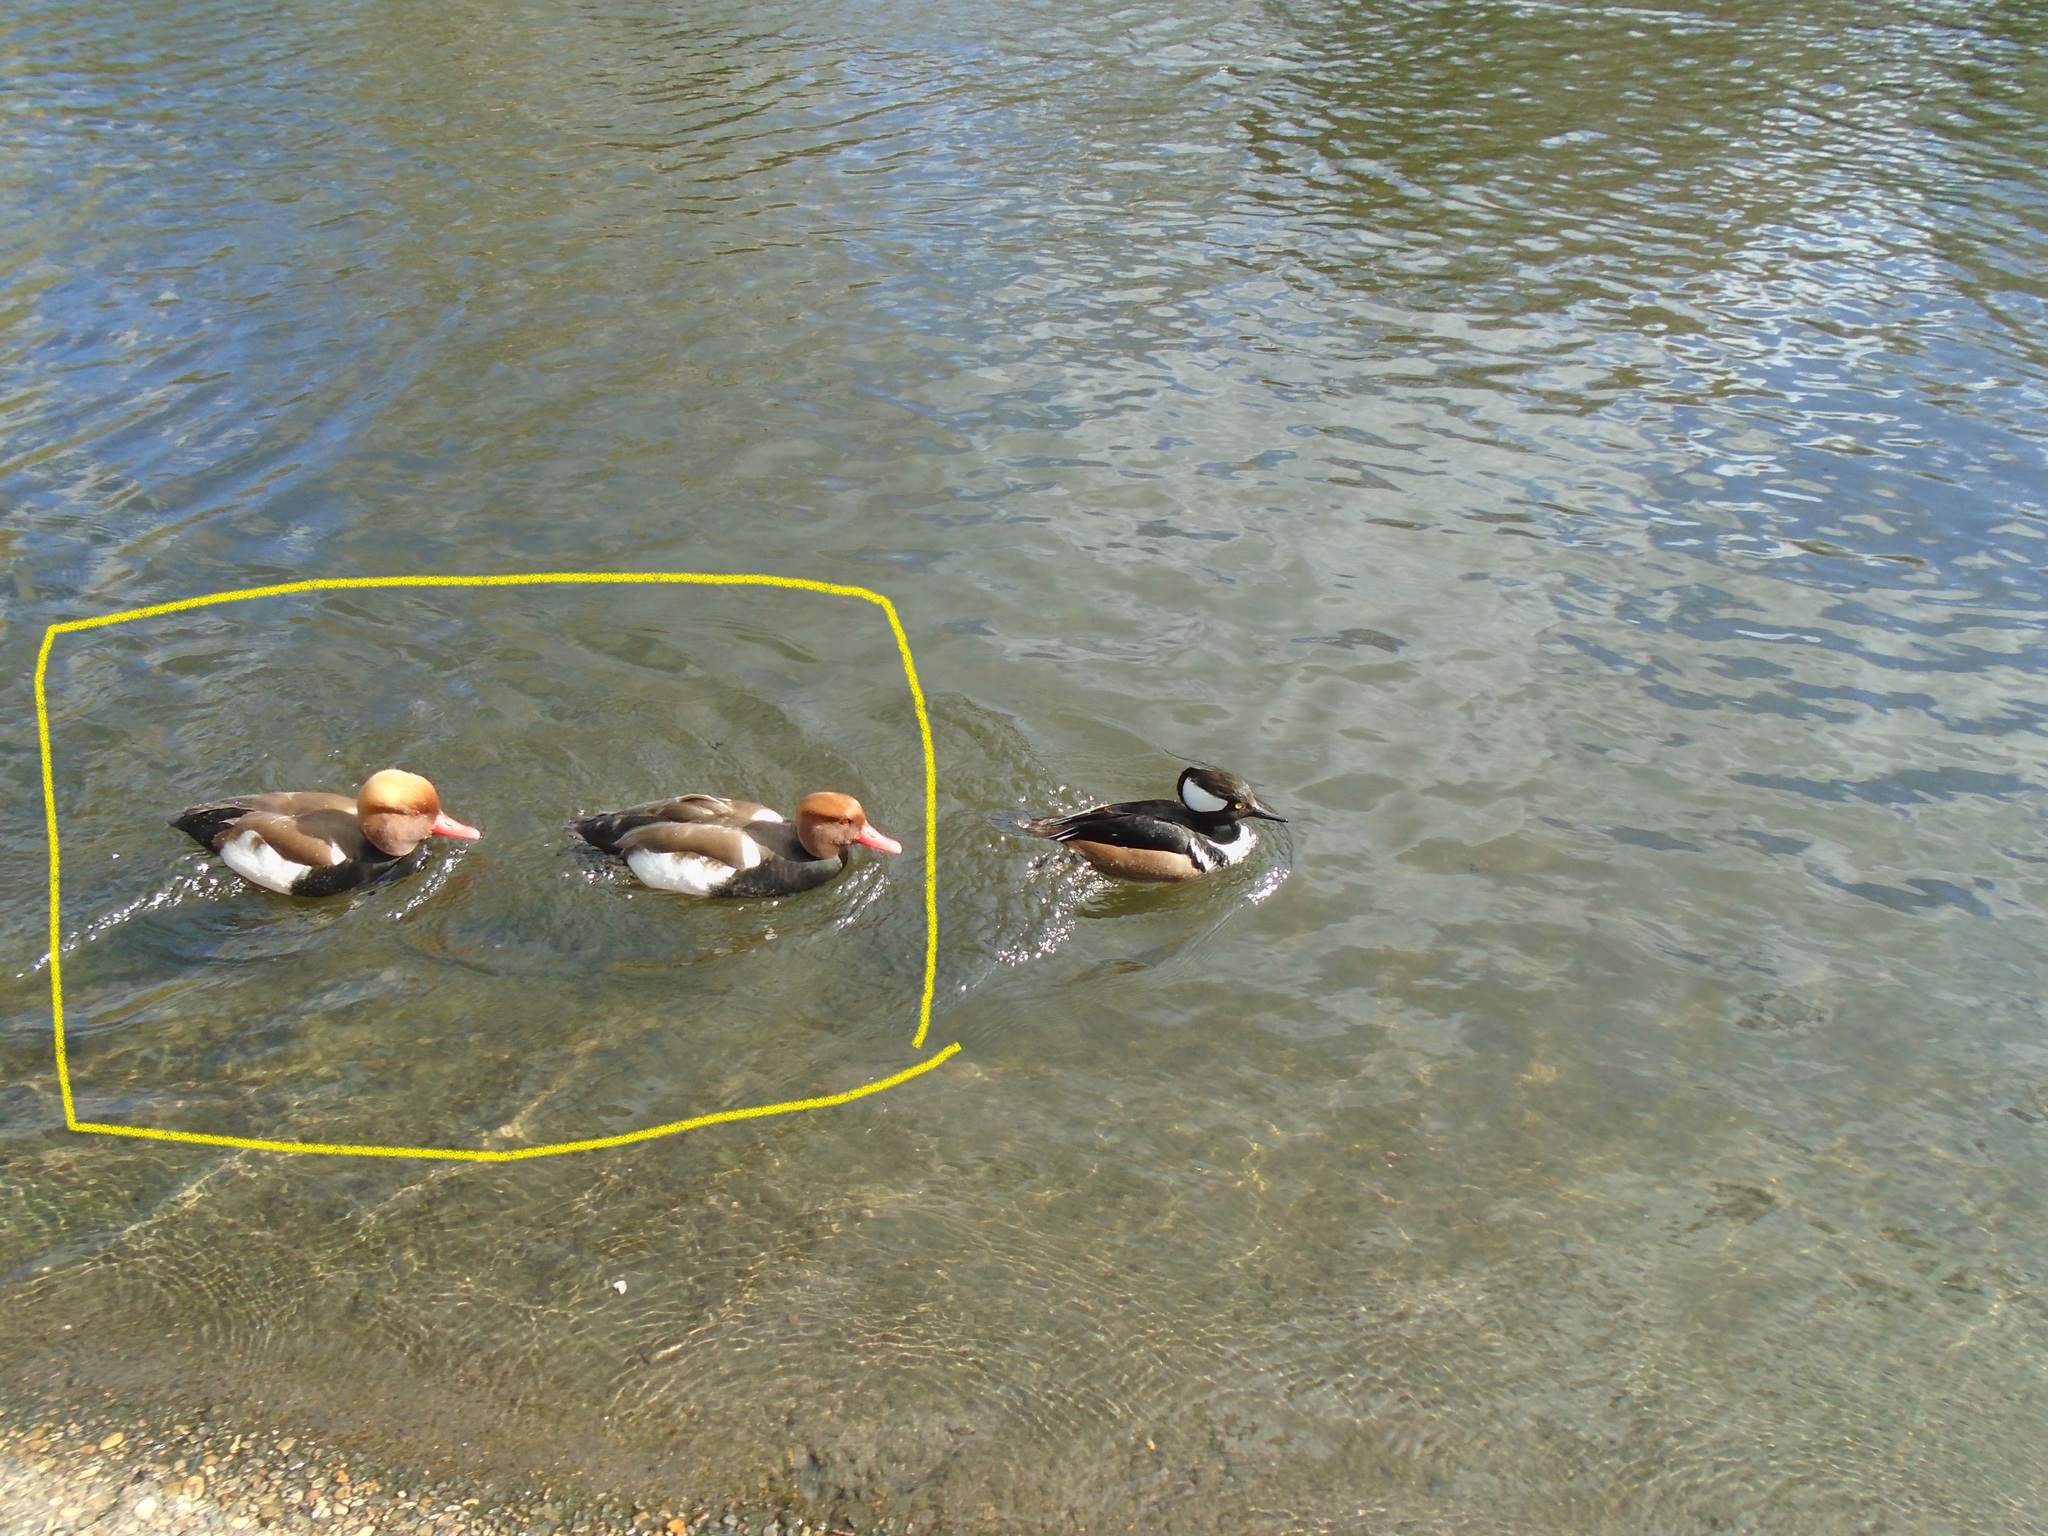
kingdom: Animalia
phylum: Chordata
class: Aves
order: Anseriformes
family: Anatidae
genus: Netta
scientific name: Netta rufina
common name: Red-crested pochard
